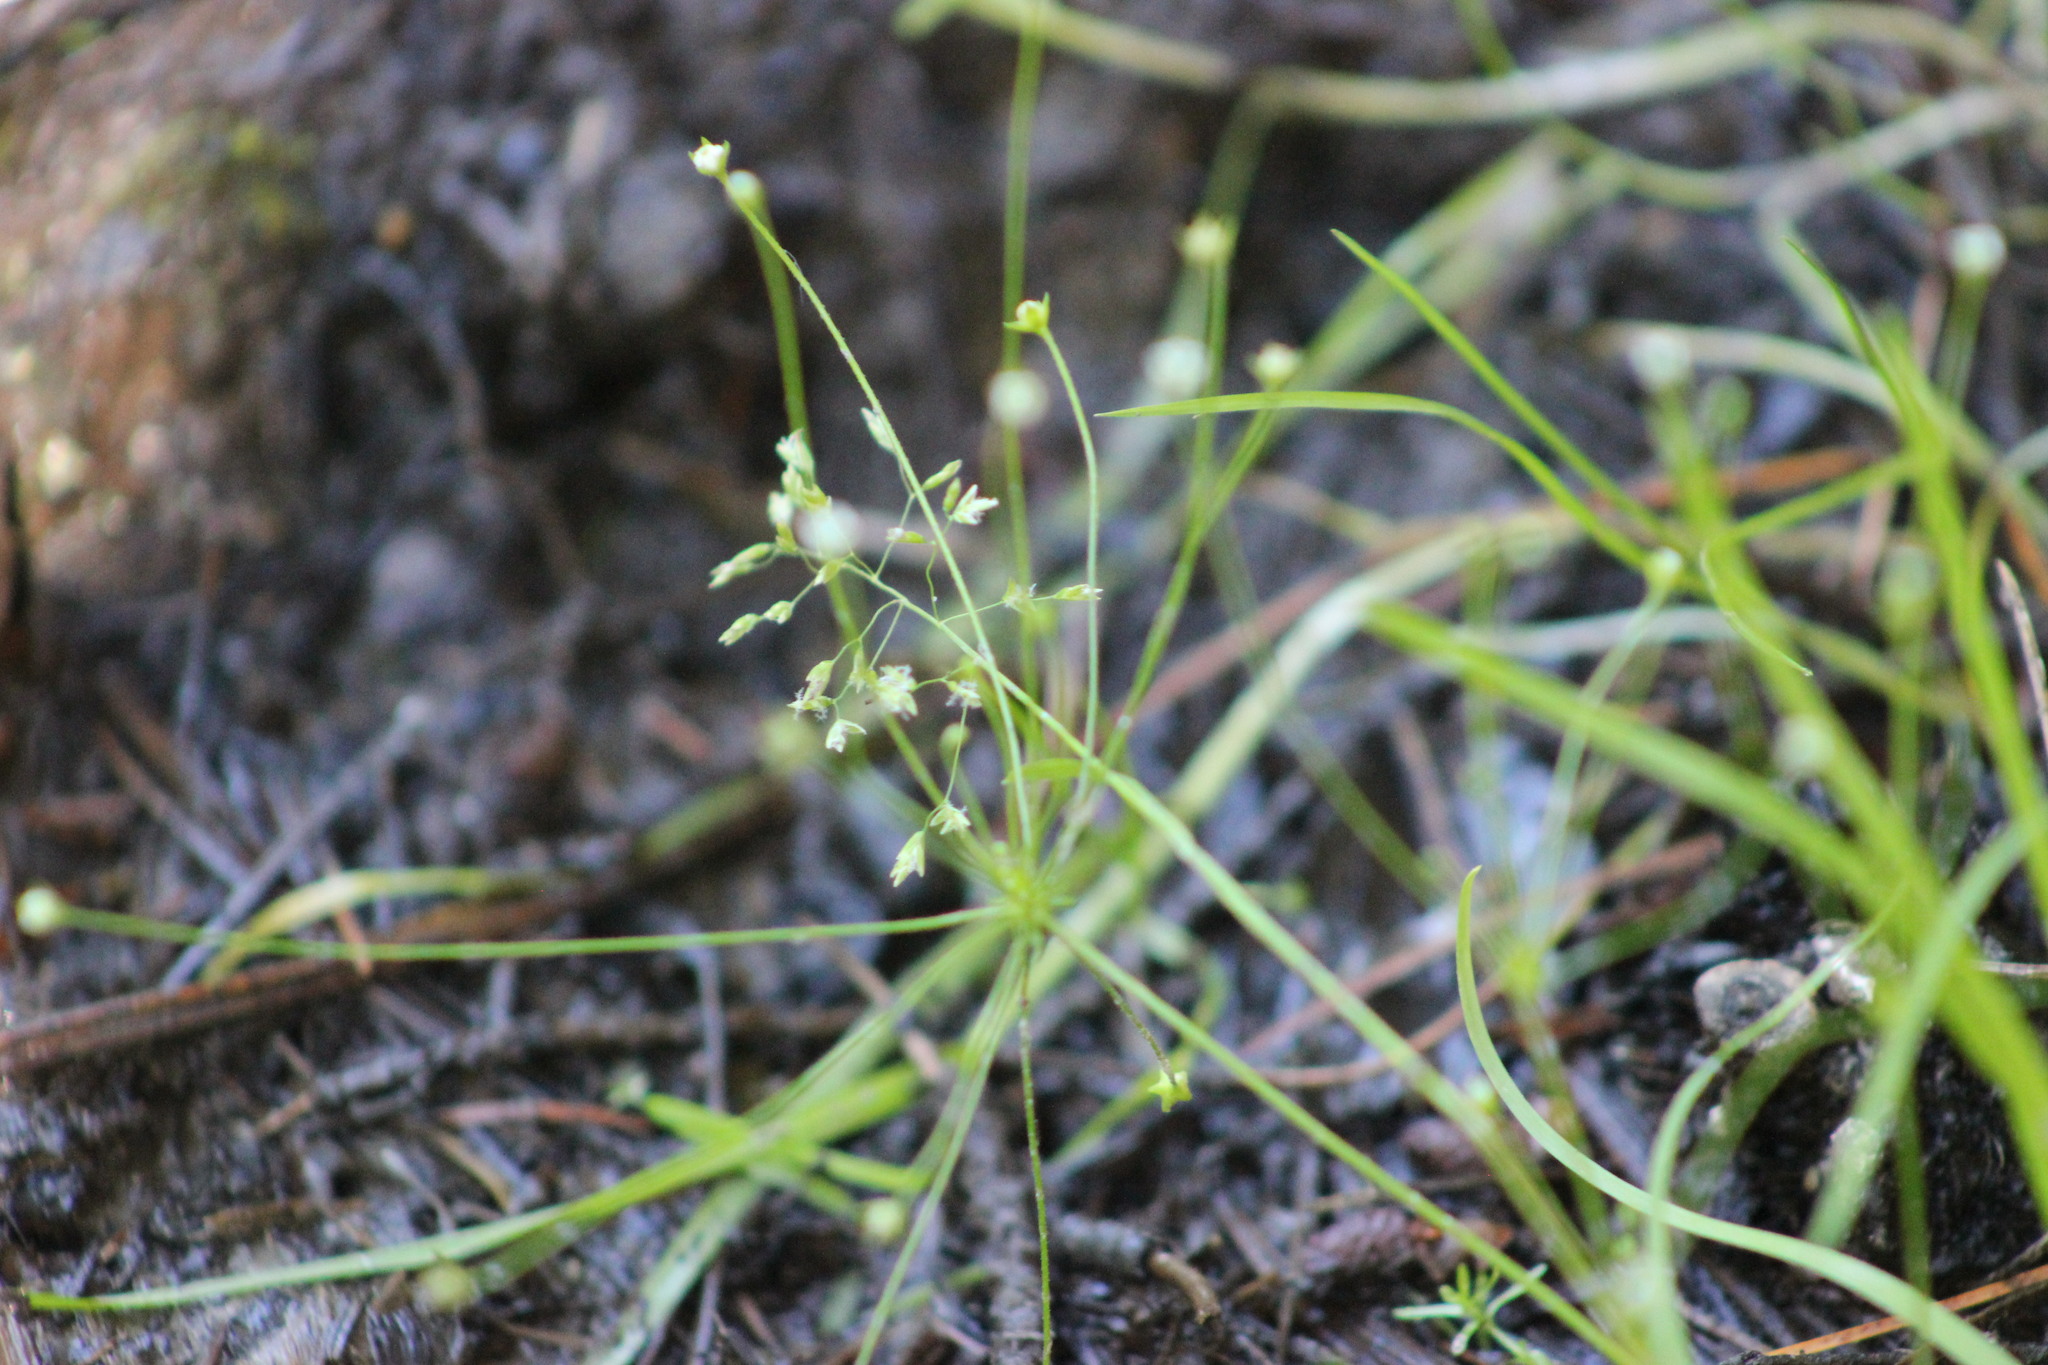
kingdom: Plantae
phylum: Tracheophyta
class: Magnoliopsida
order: Ericales
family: Primulaceae
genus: Androsace
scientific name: Androsace filiformis
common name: Filiform rock jasmine
